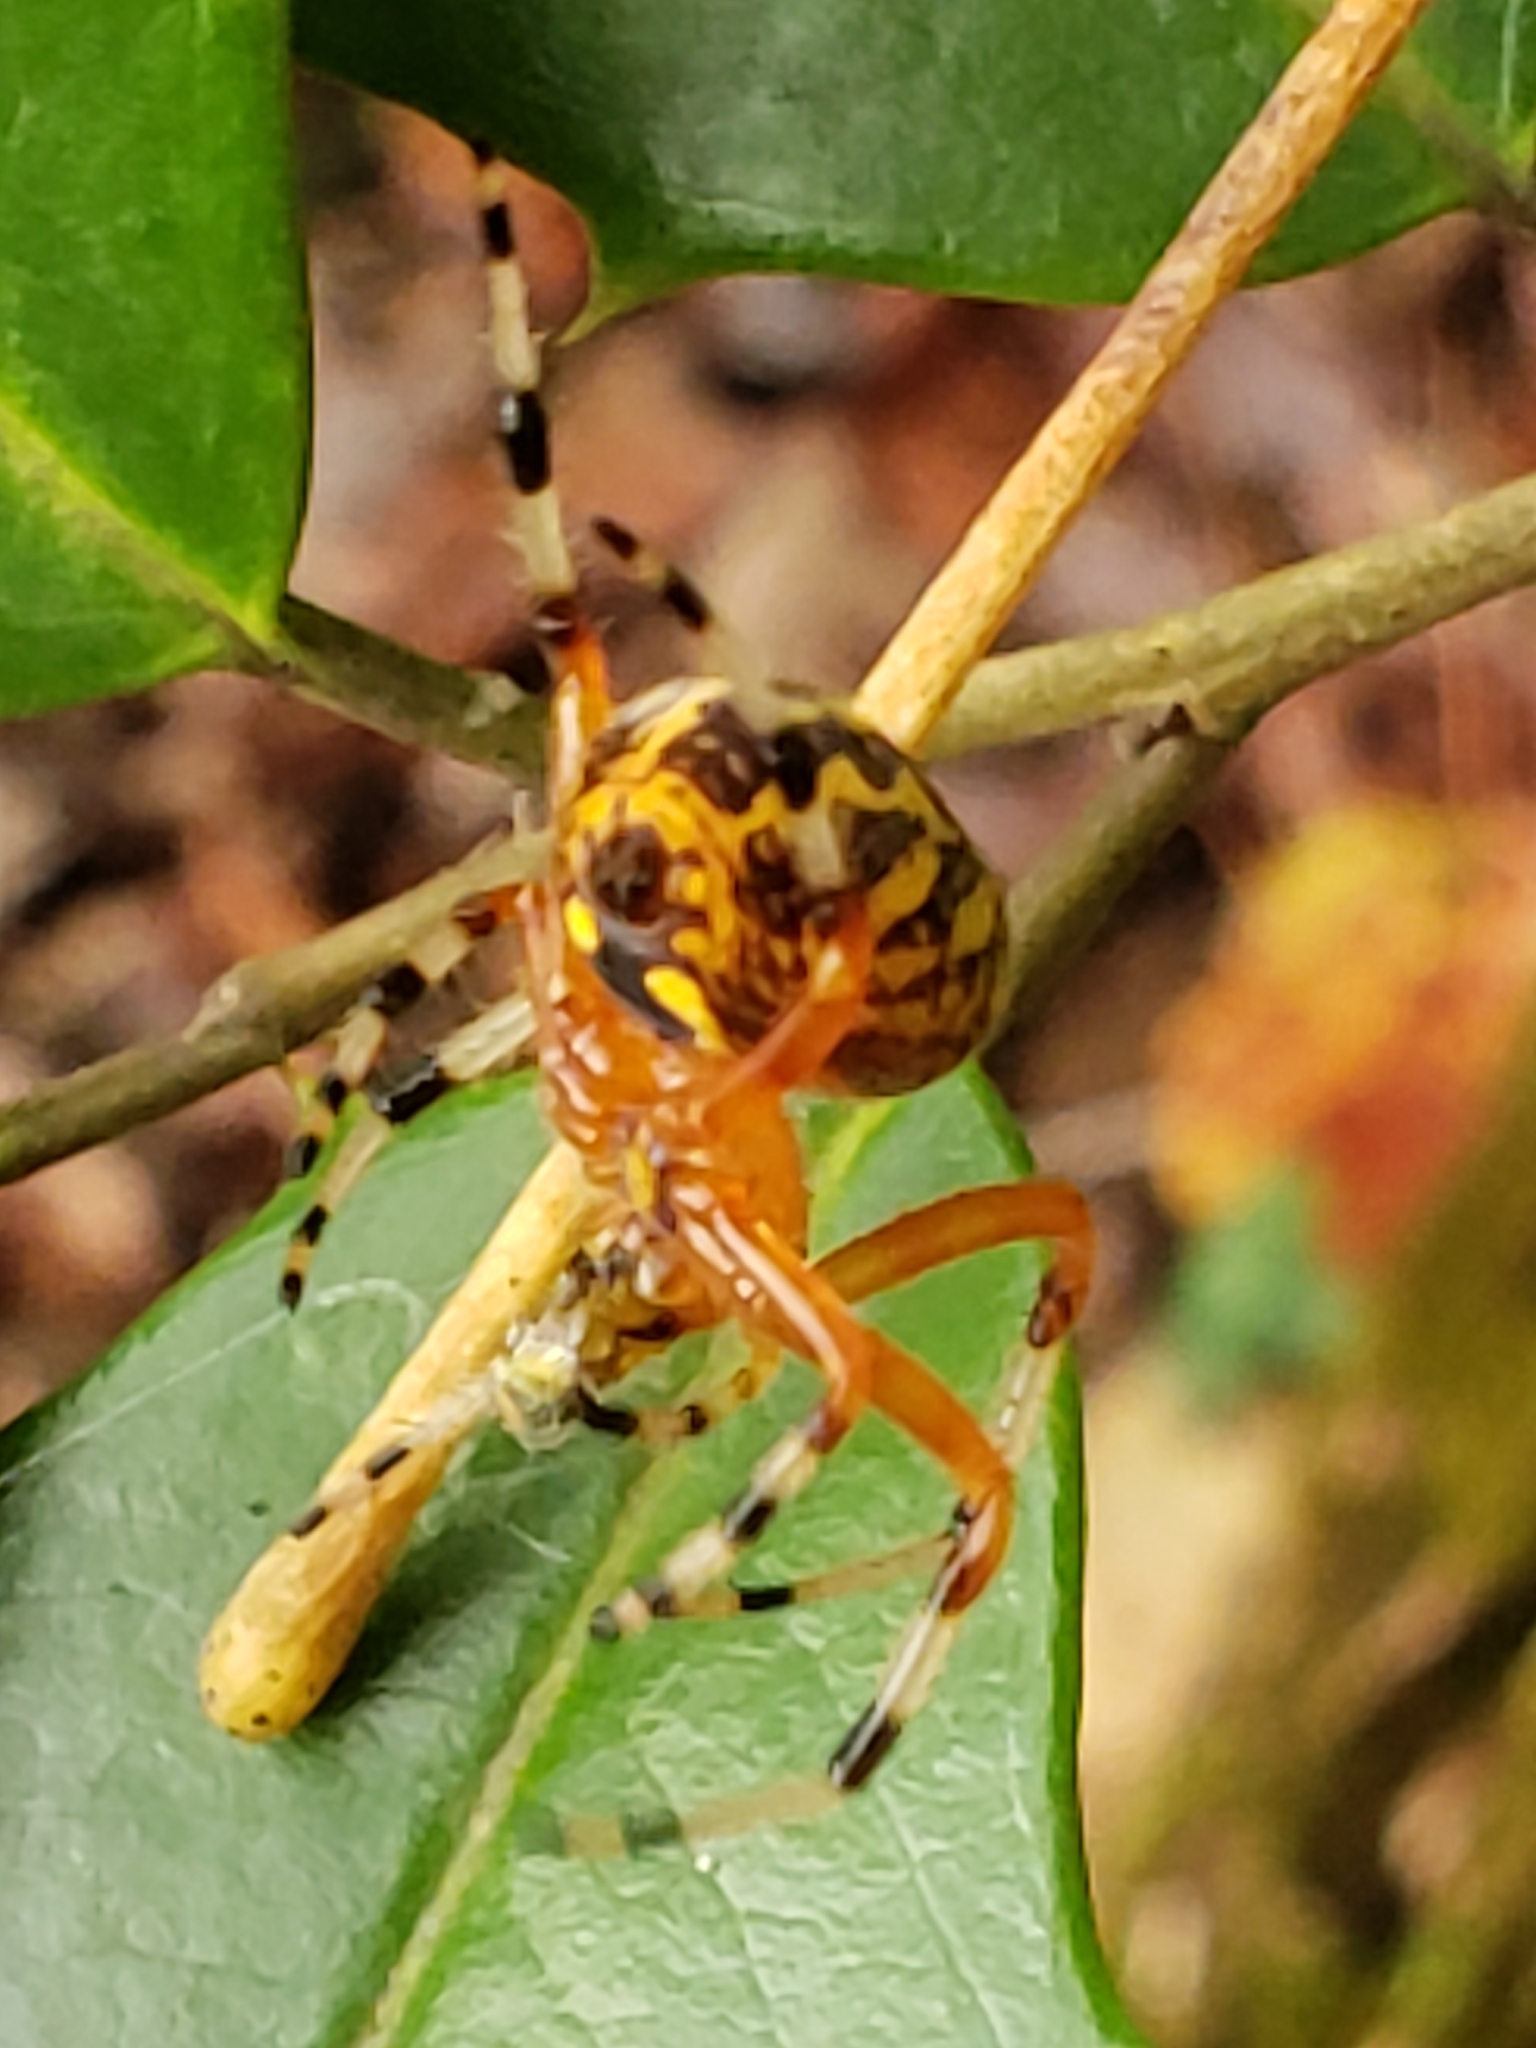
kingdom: Animalia
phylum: Arthropoda
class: Arachnida
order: Araneae
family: Araneidae
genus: Araneus
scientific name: Araneus marmoreus
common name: Marbled orbweaver
